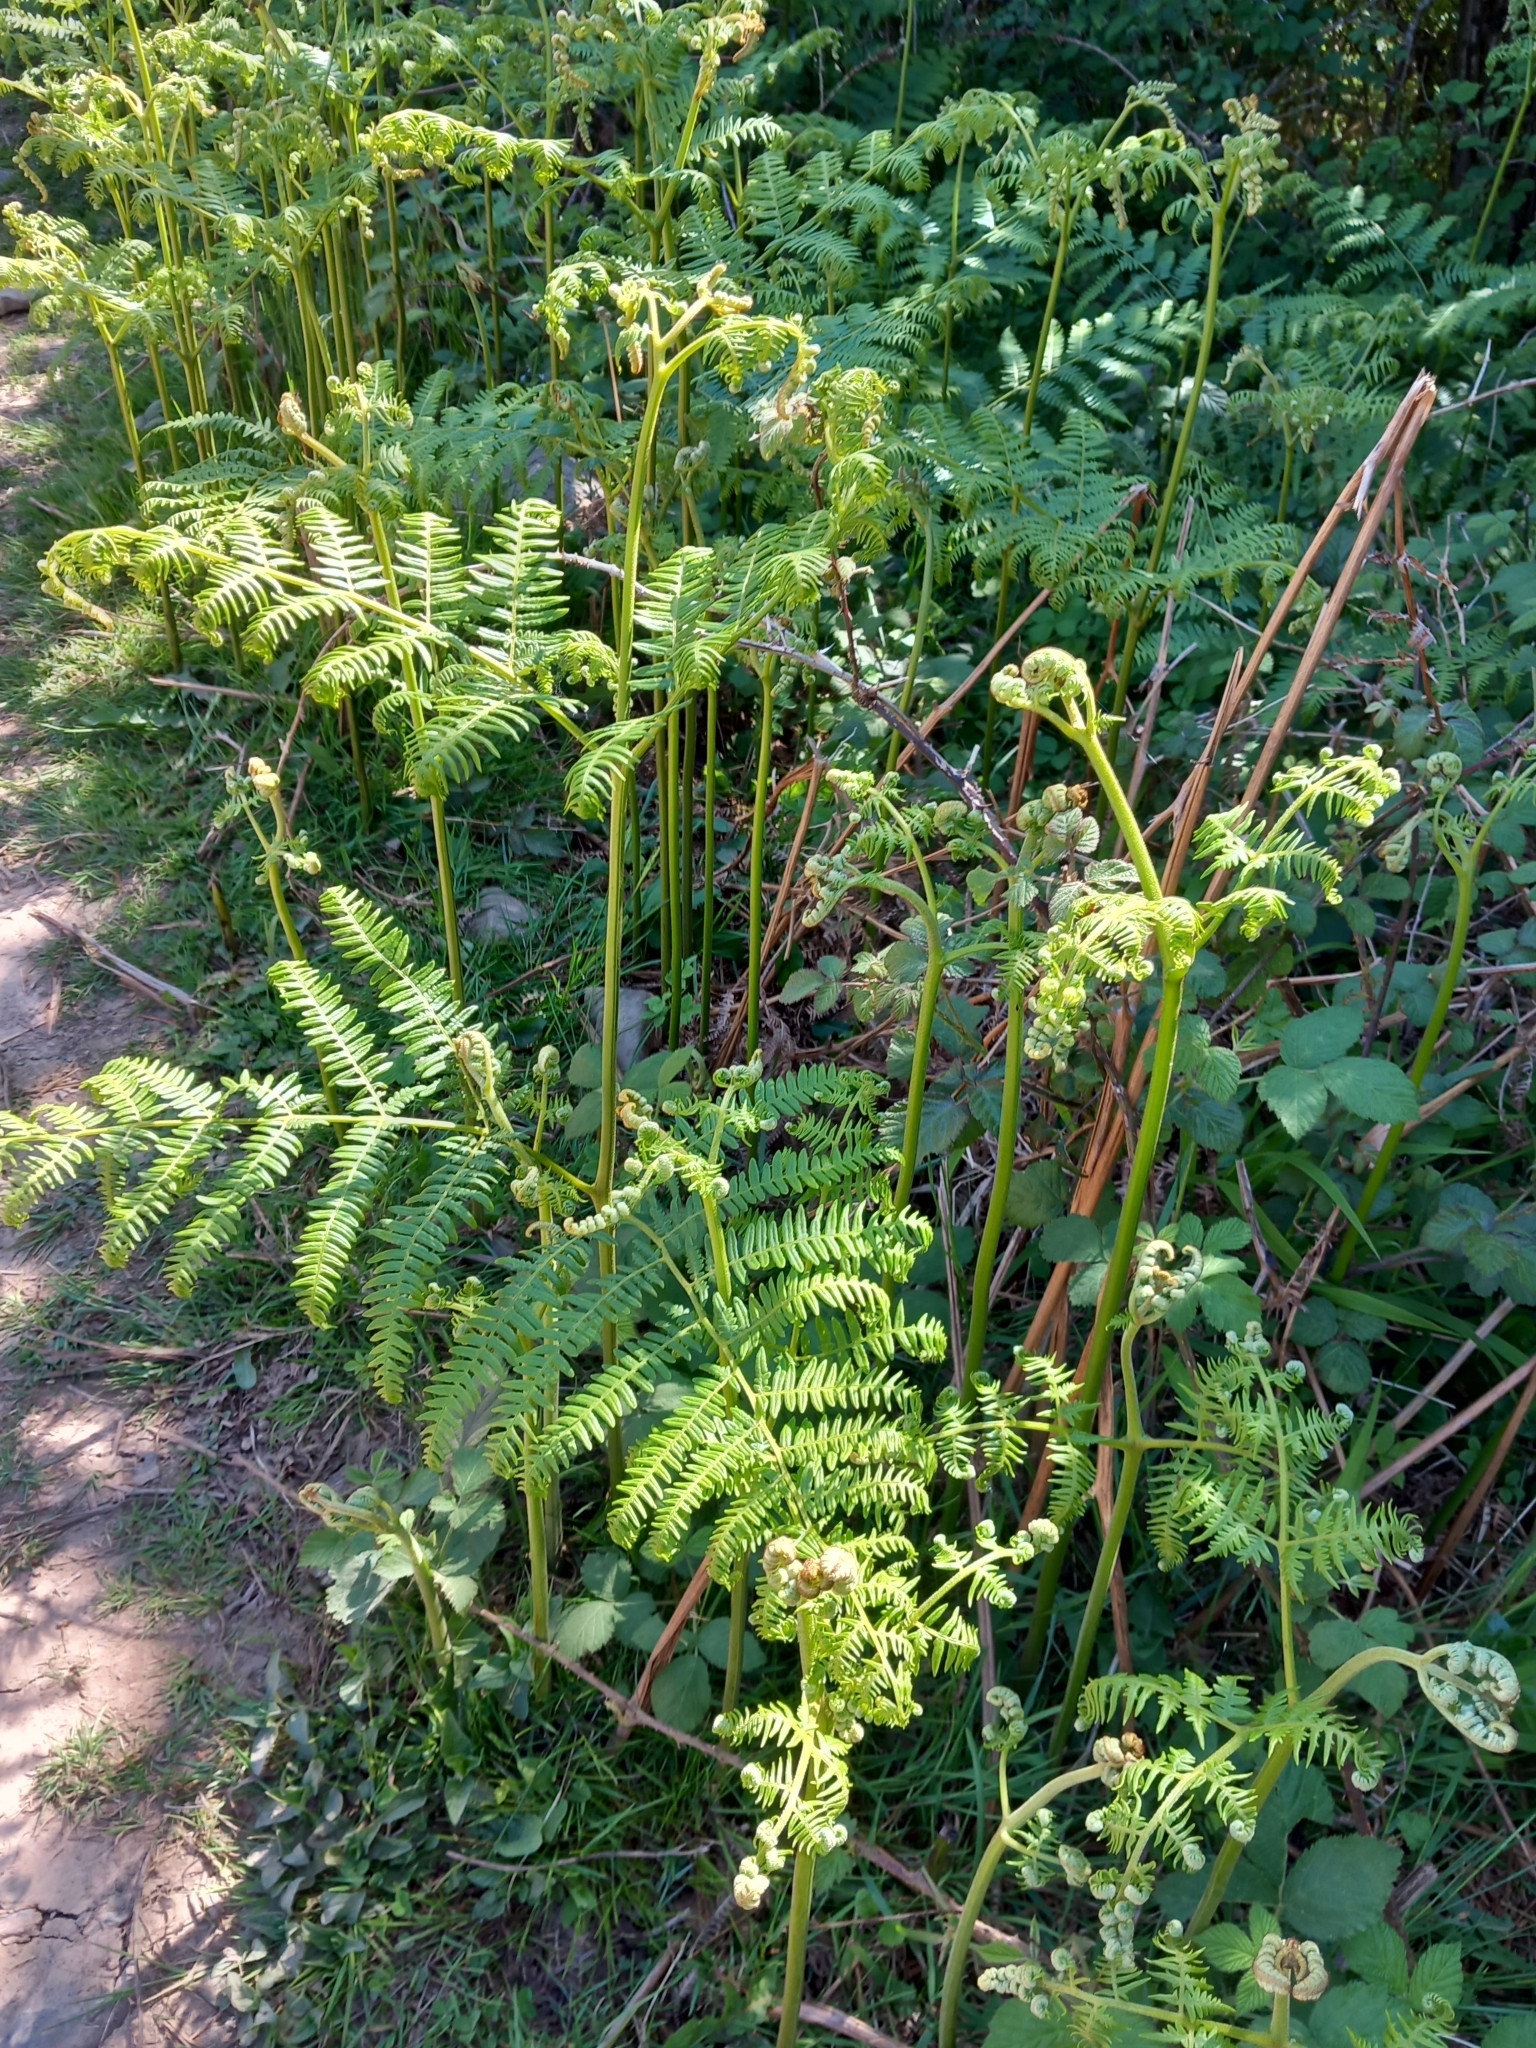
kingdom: Plantae
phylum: Tracheophyta
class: Polypodiopsida
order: Polypodiales
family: Dennstaedtiaceae
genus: Pteridium
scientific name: Pteridium aquilinum
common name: Bracken
